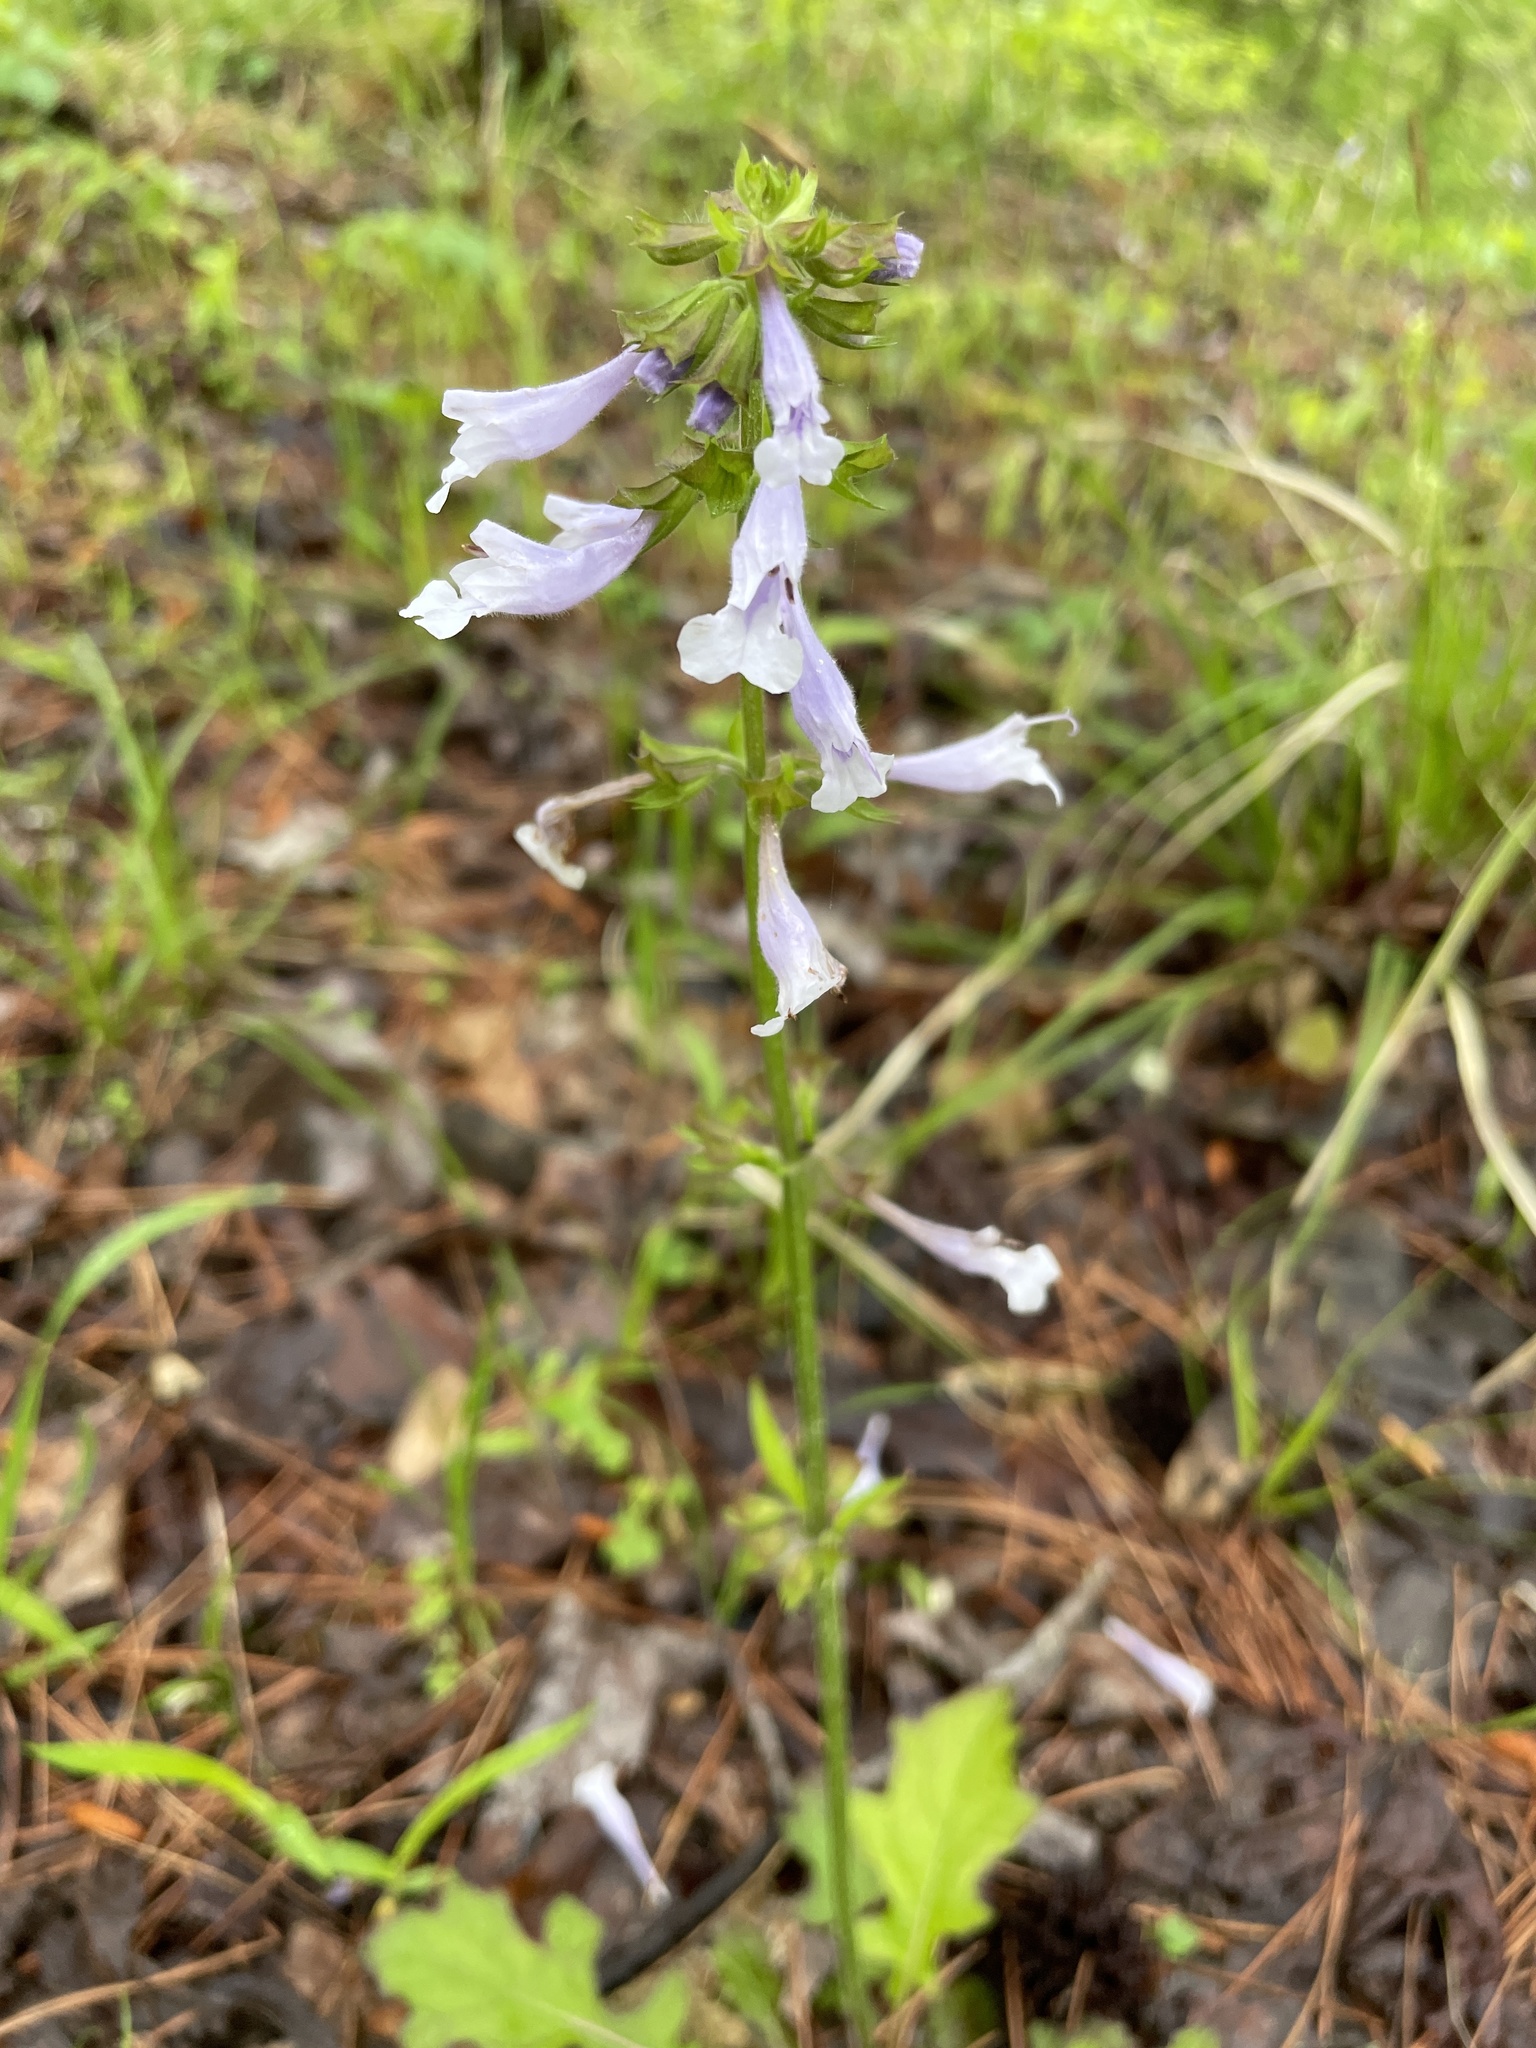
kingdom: Plantae
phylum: Tracheophyta
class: Magnoliopsida
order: Lamiales
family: Lamiaceae
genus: Salvia
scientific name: Salvia lyrata
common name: Cancerweed
